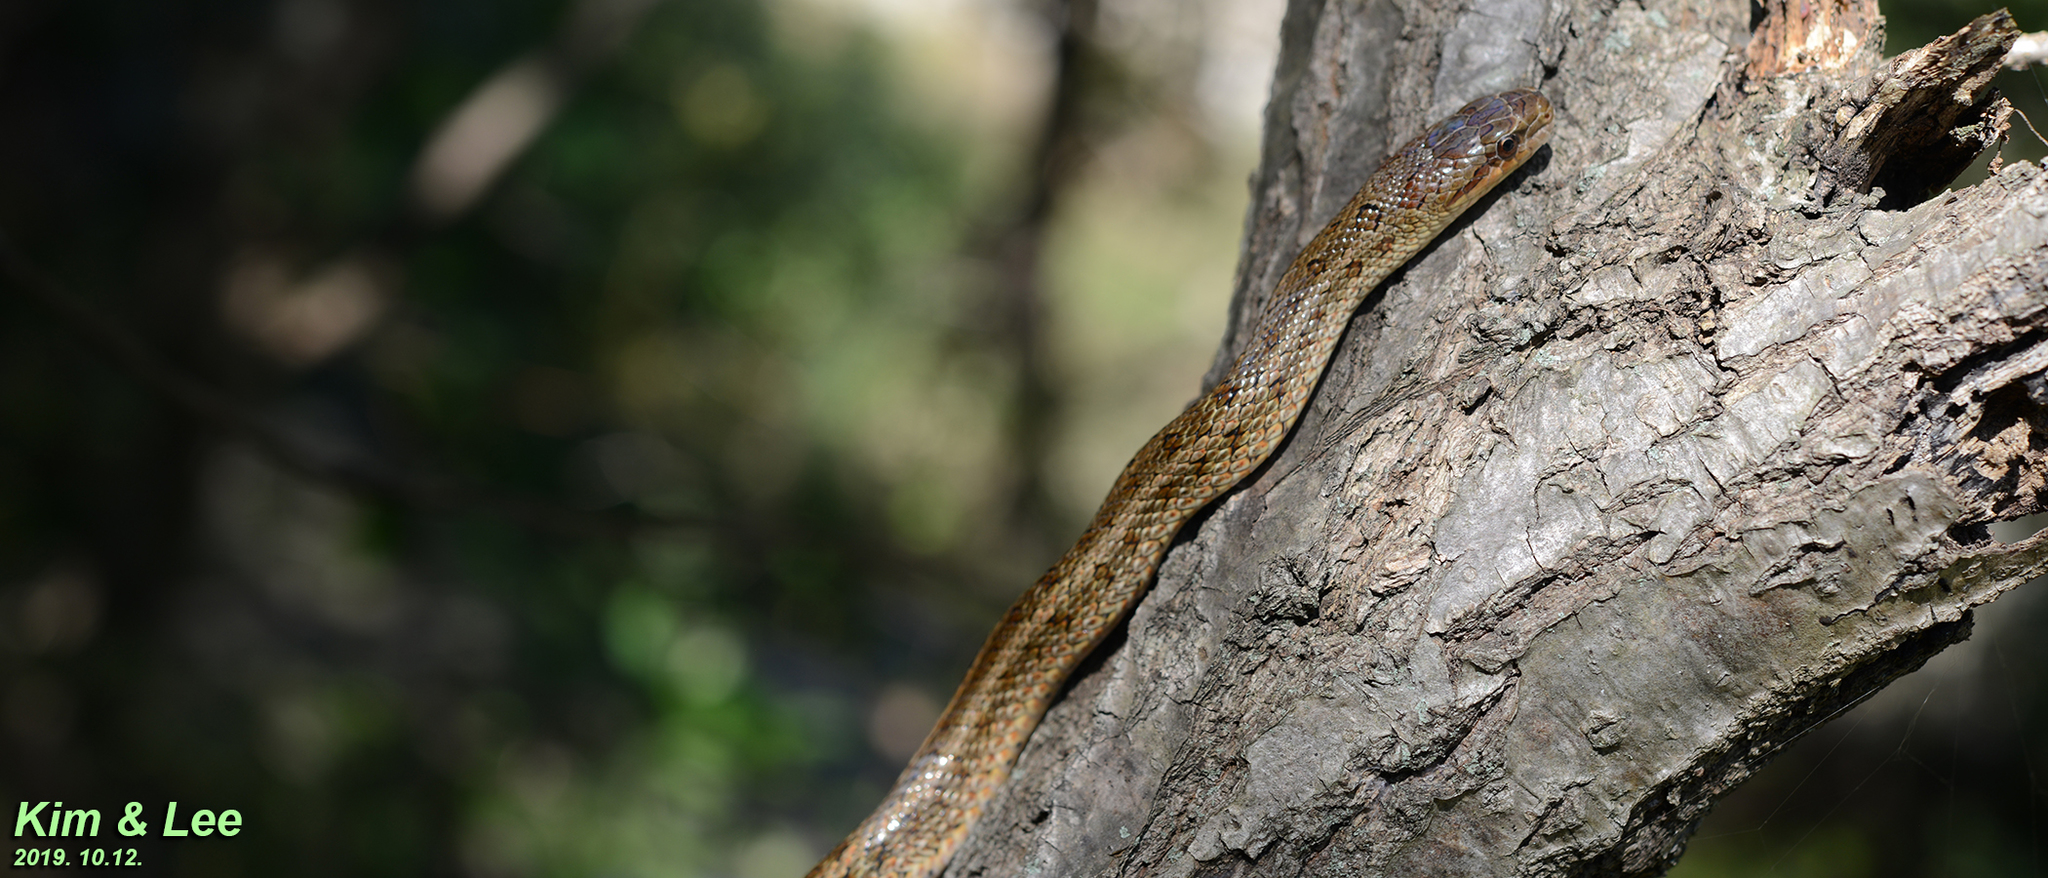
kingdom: Animalia
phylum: Chordata
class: Squamata
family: Colubridae
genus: Elaphe
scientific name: Elaphe dione
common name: Dione ratsnake
